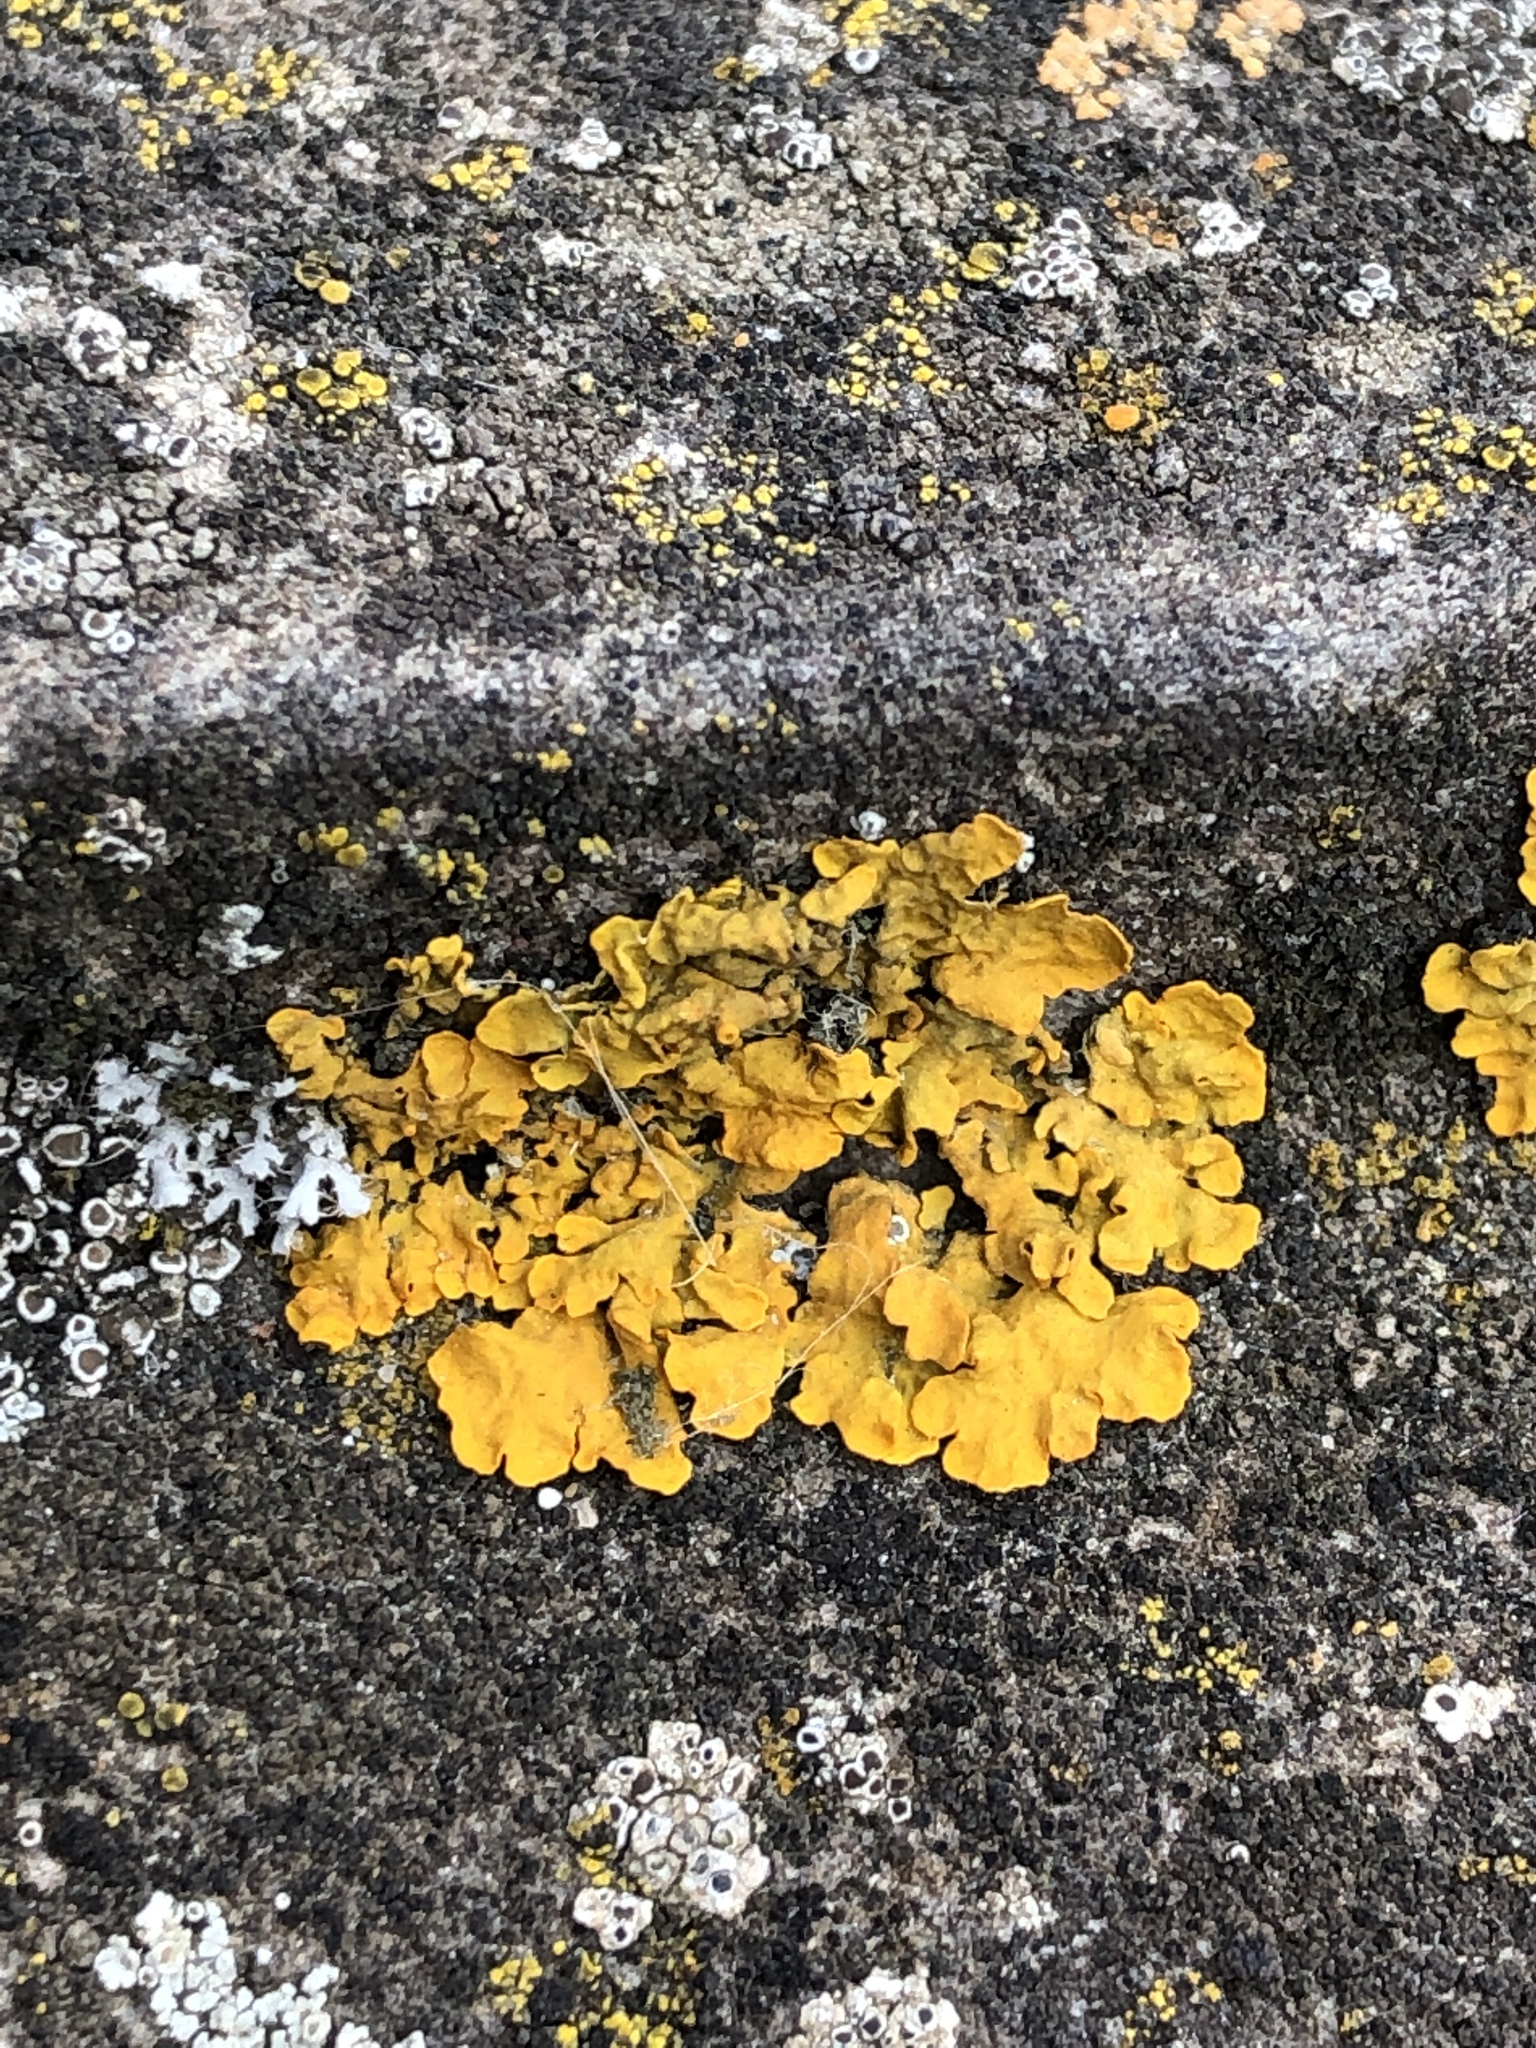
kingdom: Fungi
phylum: Ascomycota
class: Lecanoromycetes
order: Teloschistales
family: Teloschistaceae
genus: Xanthoria
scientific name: Xanthoria parietina
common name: Common orange lichen
